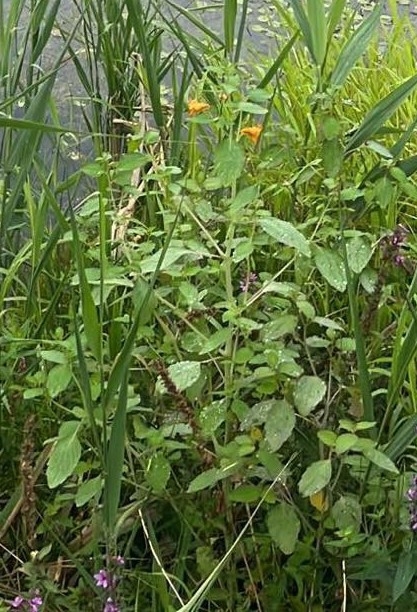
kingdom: Plantae
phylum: Tracheophyta
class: Magnoliopsida
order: Ericales
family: Balsaminaceae
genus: Impatiens
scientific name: Impatiens capensis
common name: Orange balsam
